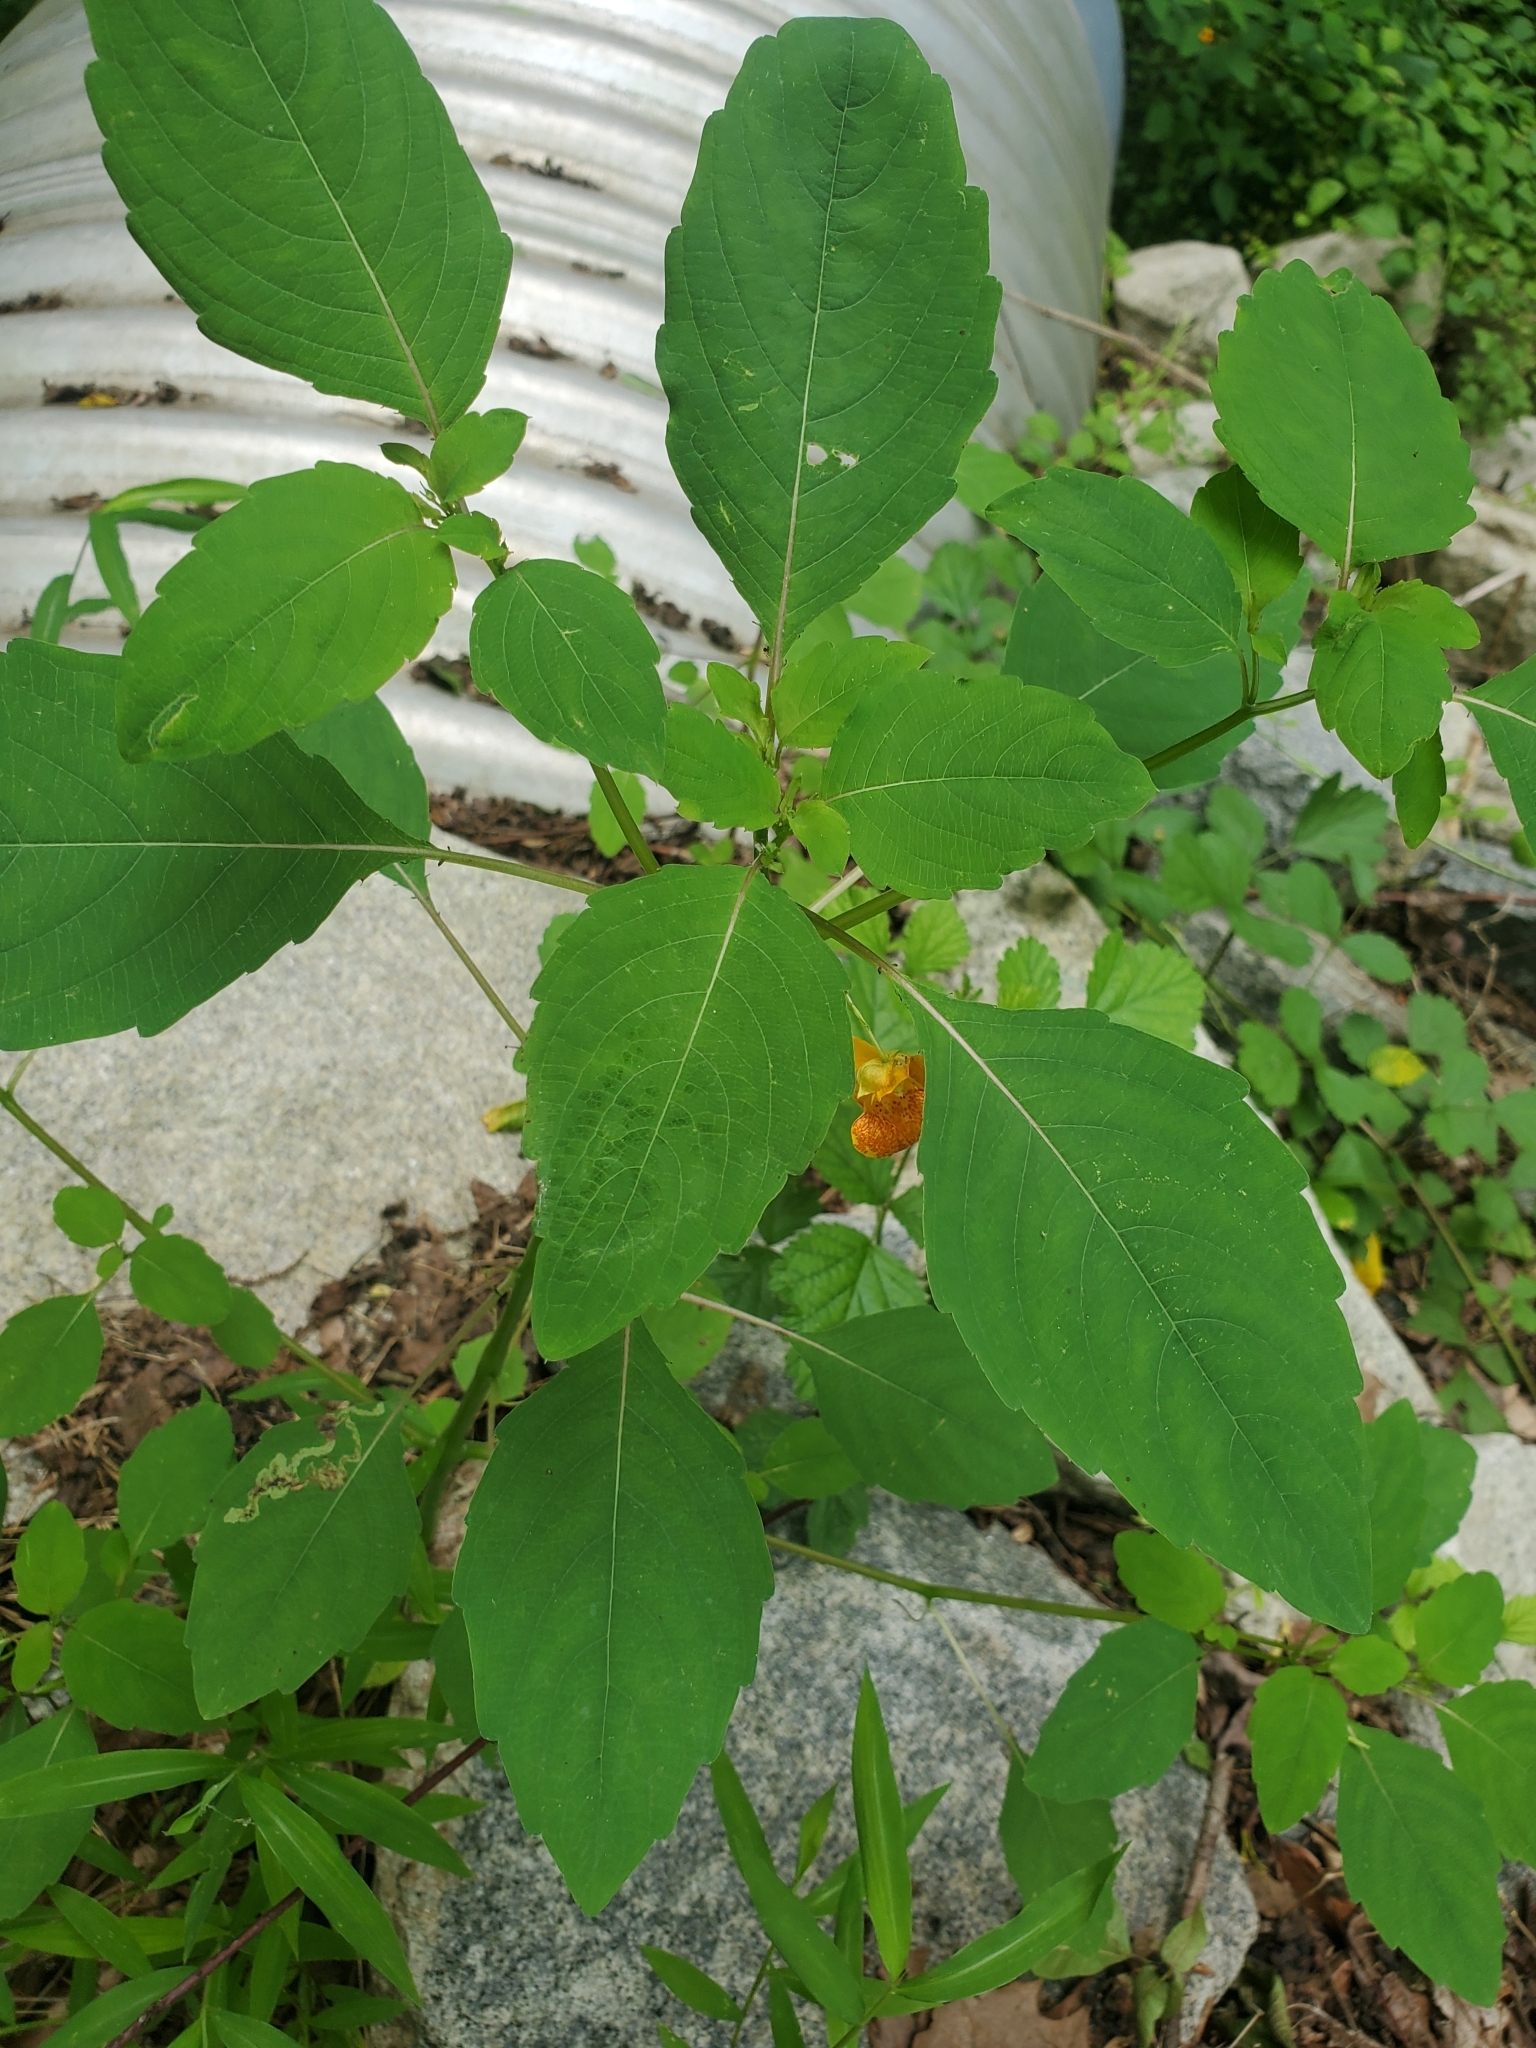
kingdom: Plantae
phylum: Tracheophyta
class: Magnoliopsida
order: Ericales
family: Balsaminaceae
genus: Impatiens
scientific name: Impatiens capensis
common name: Orange balsam
